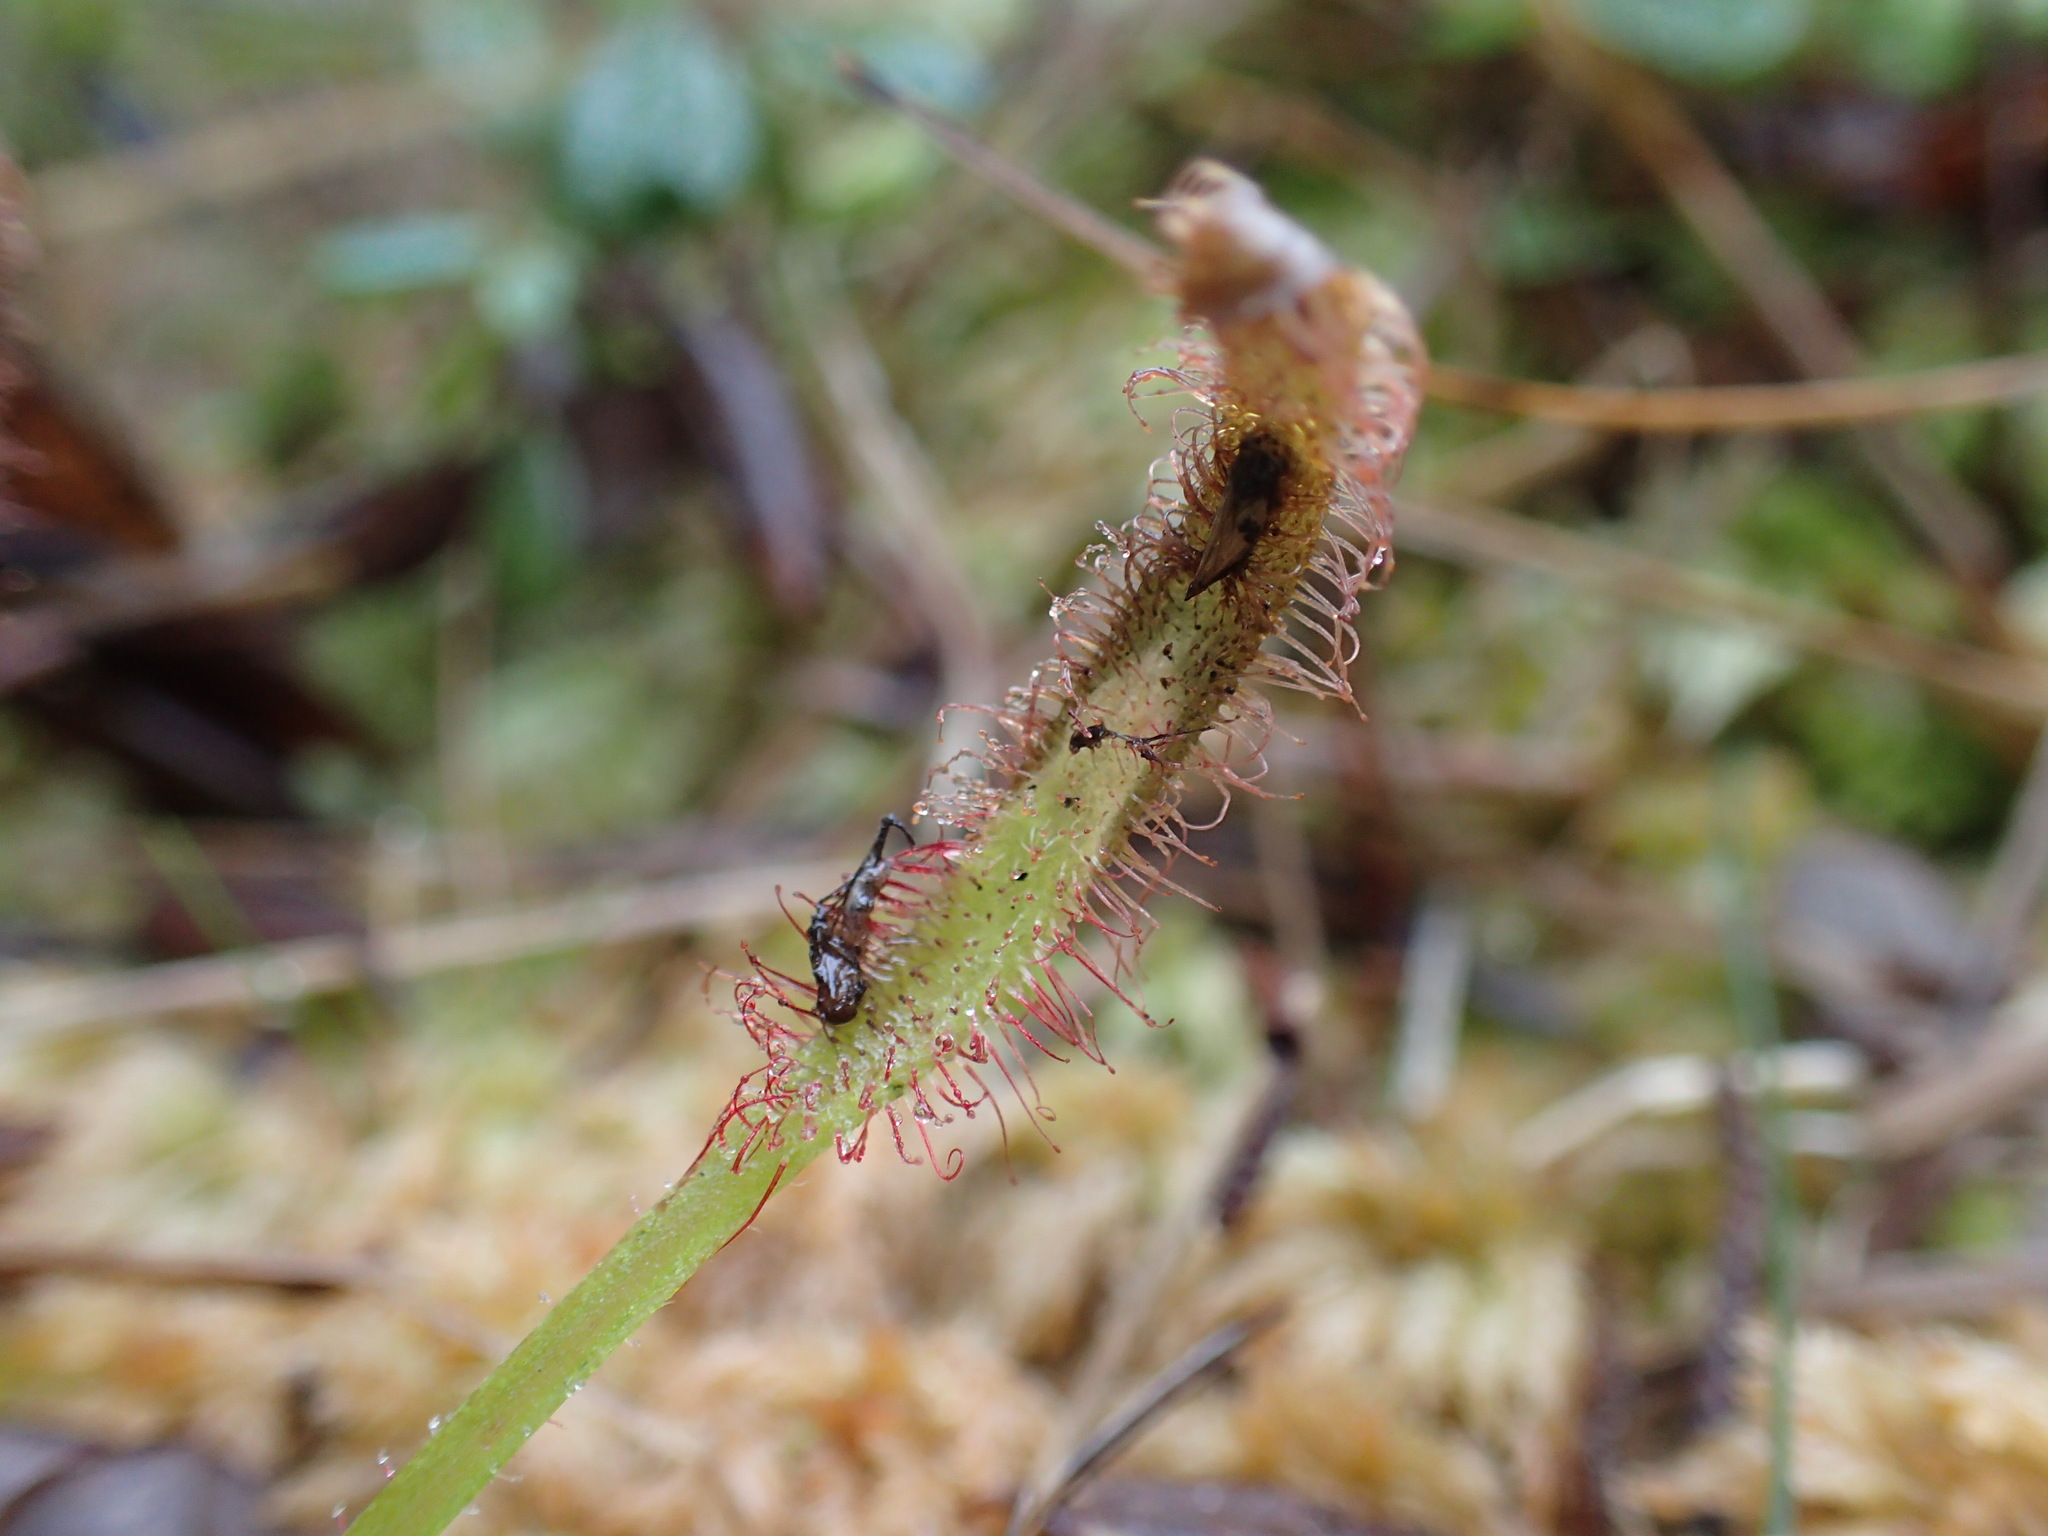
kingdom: Plantae
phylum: Tracheophyta
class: Magnoliopsida
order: Caryophyllales
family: Droseraceae
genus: Drosera
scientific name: Drosera capensis
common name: Cape sundew
